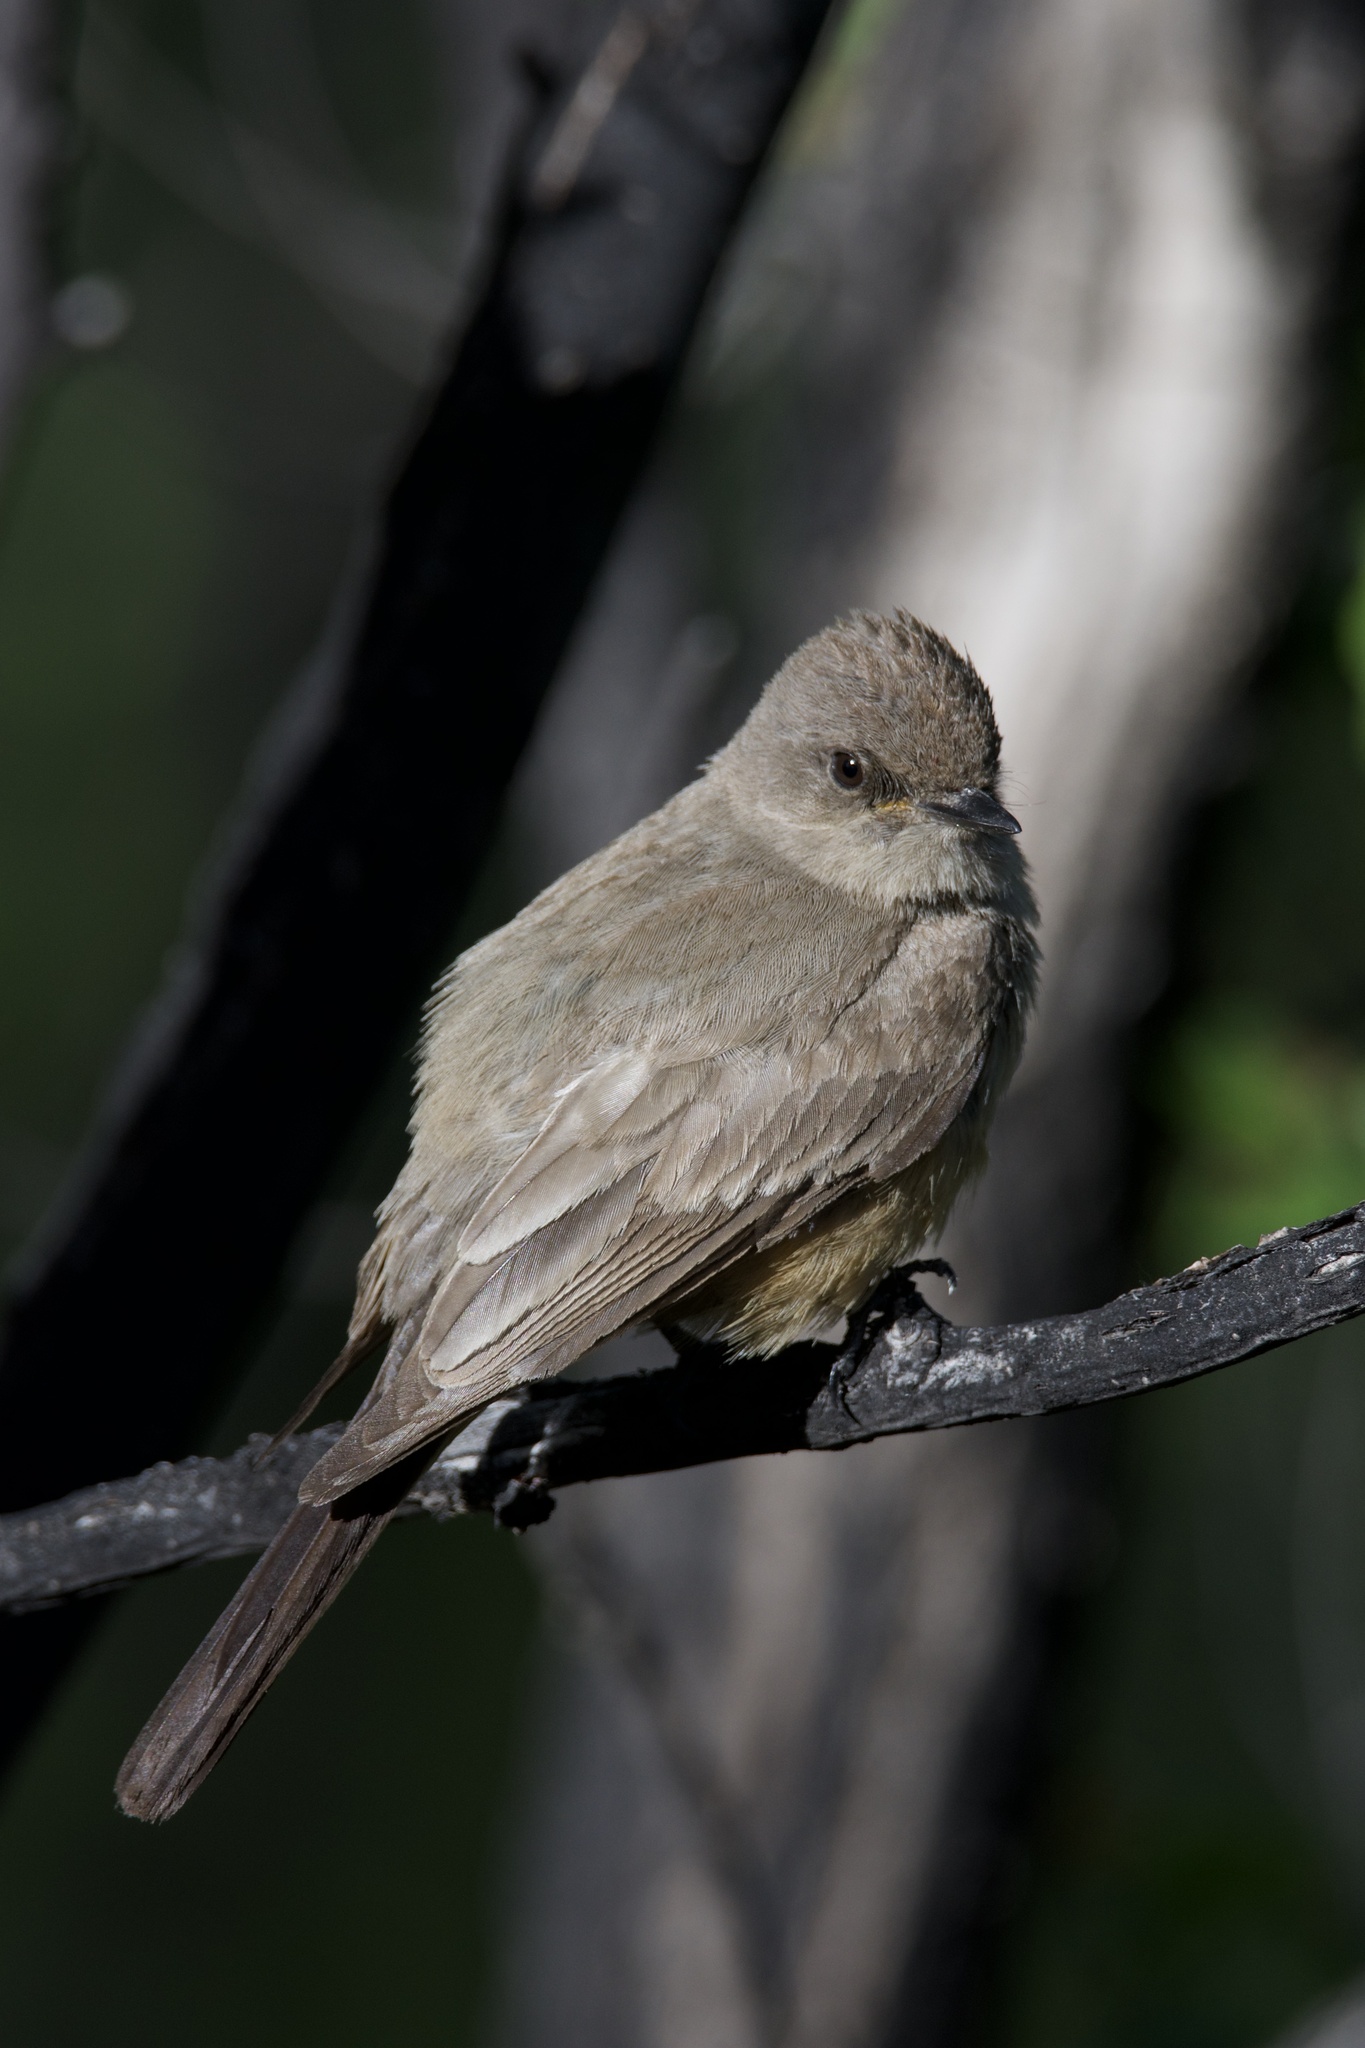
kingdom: Animalia
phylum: Chordata
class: Aves
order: Passeriformes
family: Tyrannidae
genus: Sayornis
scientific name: Sayornis saya
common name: Say's phoebe
